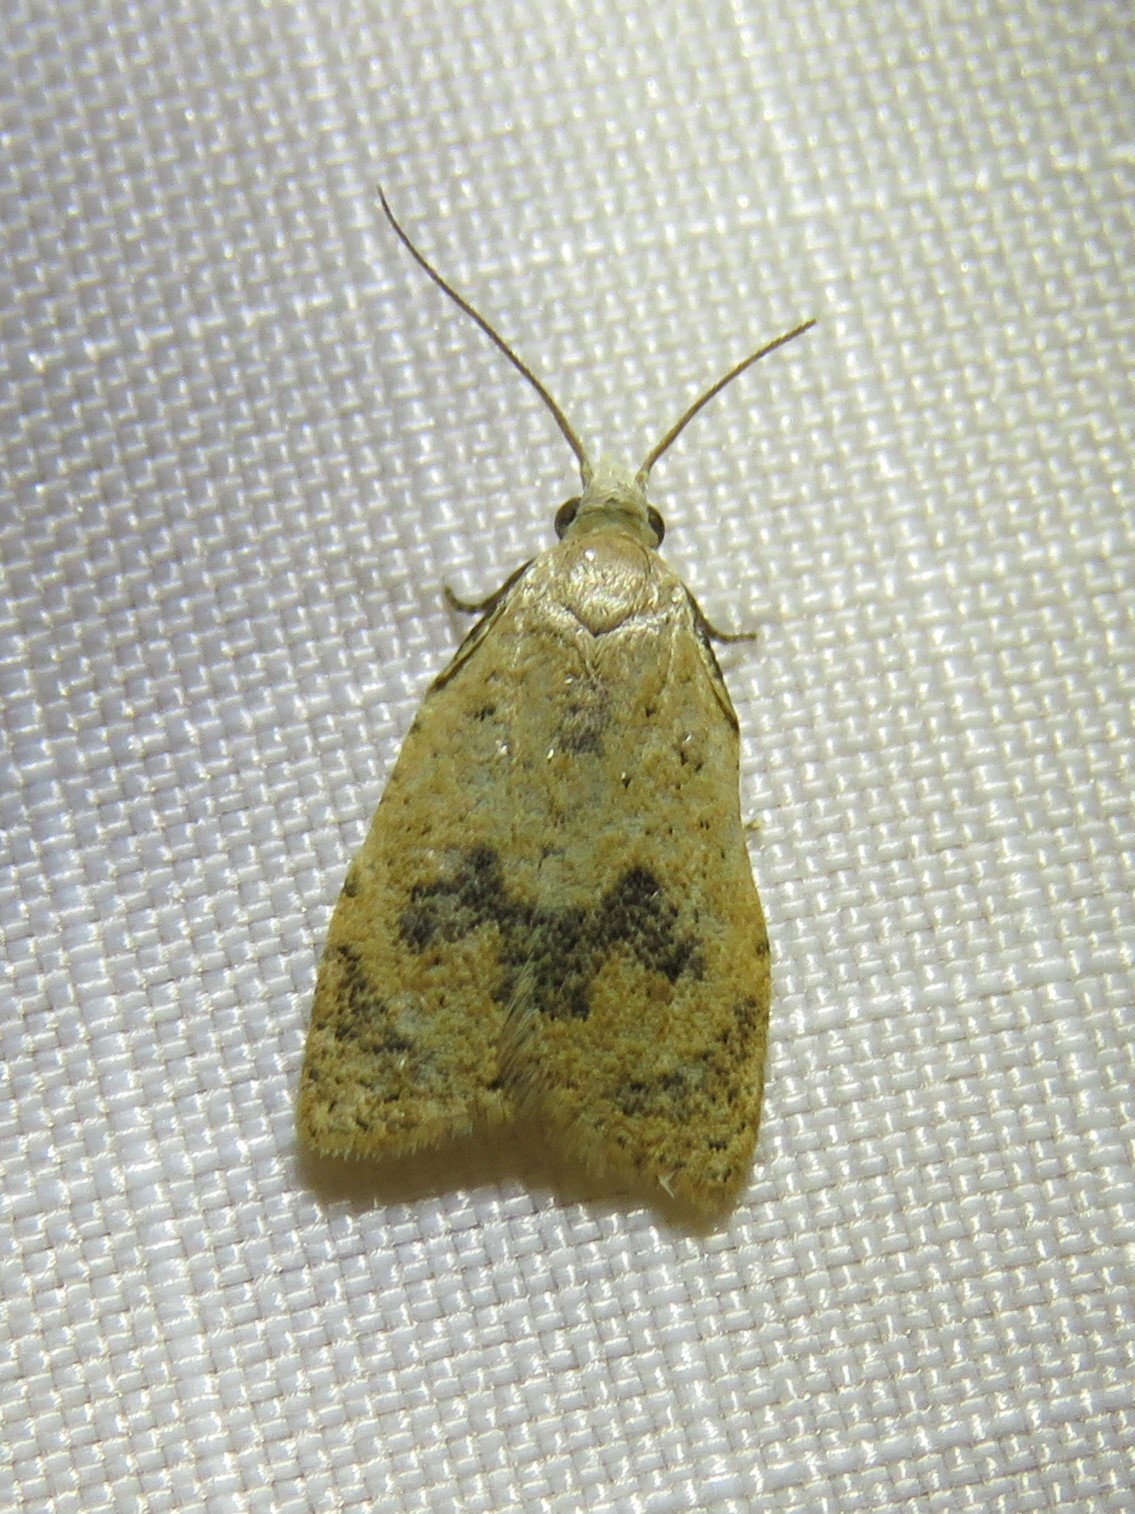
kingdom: Animalia
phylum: Arthropoda
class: Insecta
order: Lepidoptera
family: Tortricidae
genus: Sparganothoides
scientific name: Sparganothoides lentiginosana
